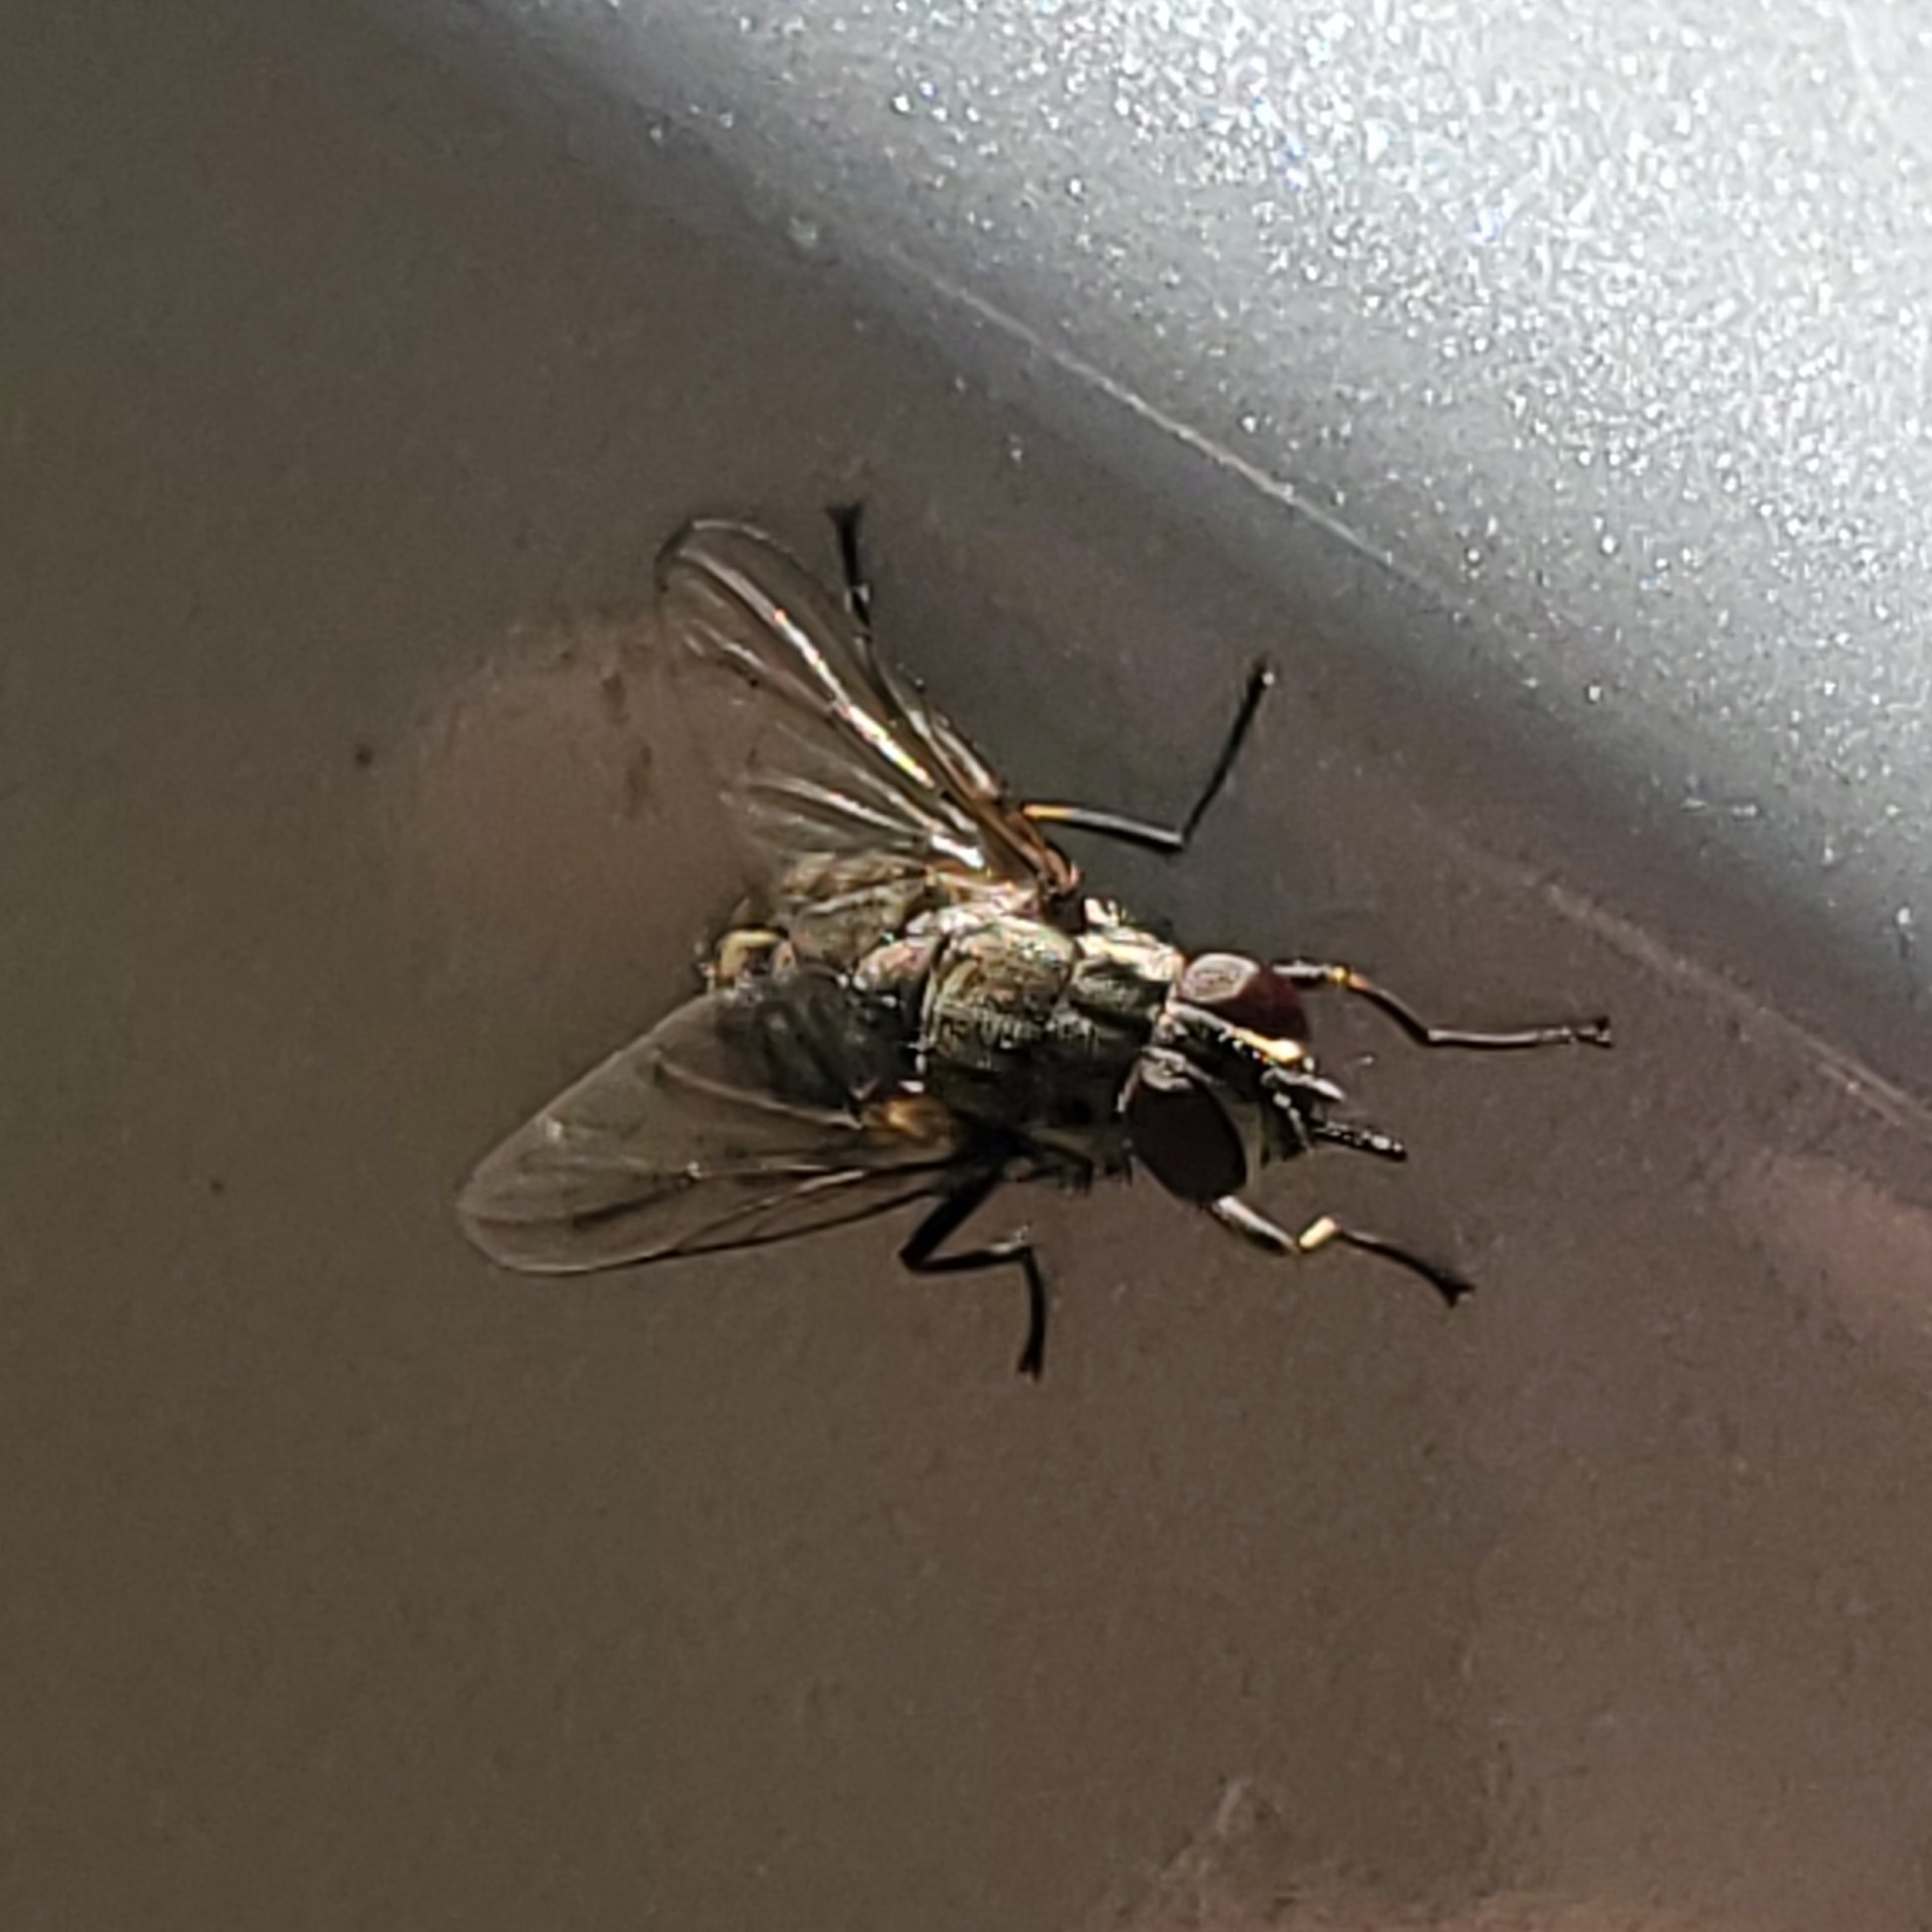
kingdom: Animalia
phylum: Arthropoda
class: Insecta
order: Diptera
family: Muscidae
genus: Stomoxys
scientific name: Stomoxys calcitrans
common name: Stable fly
